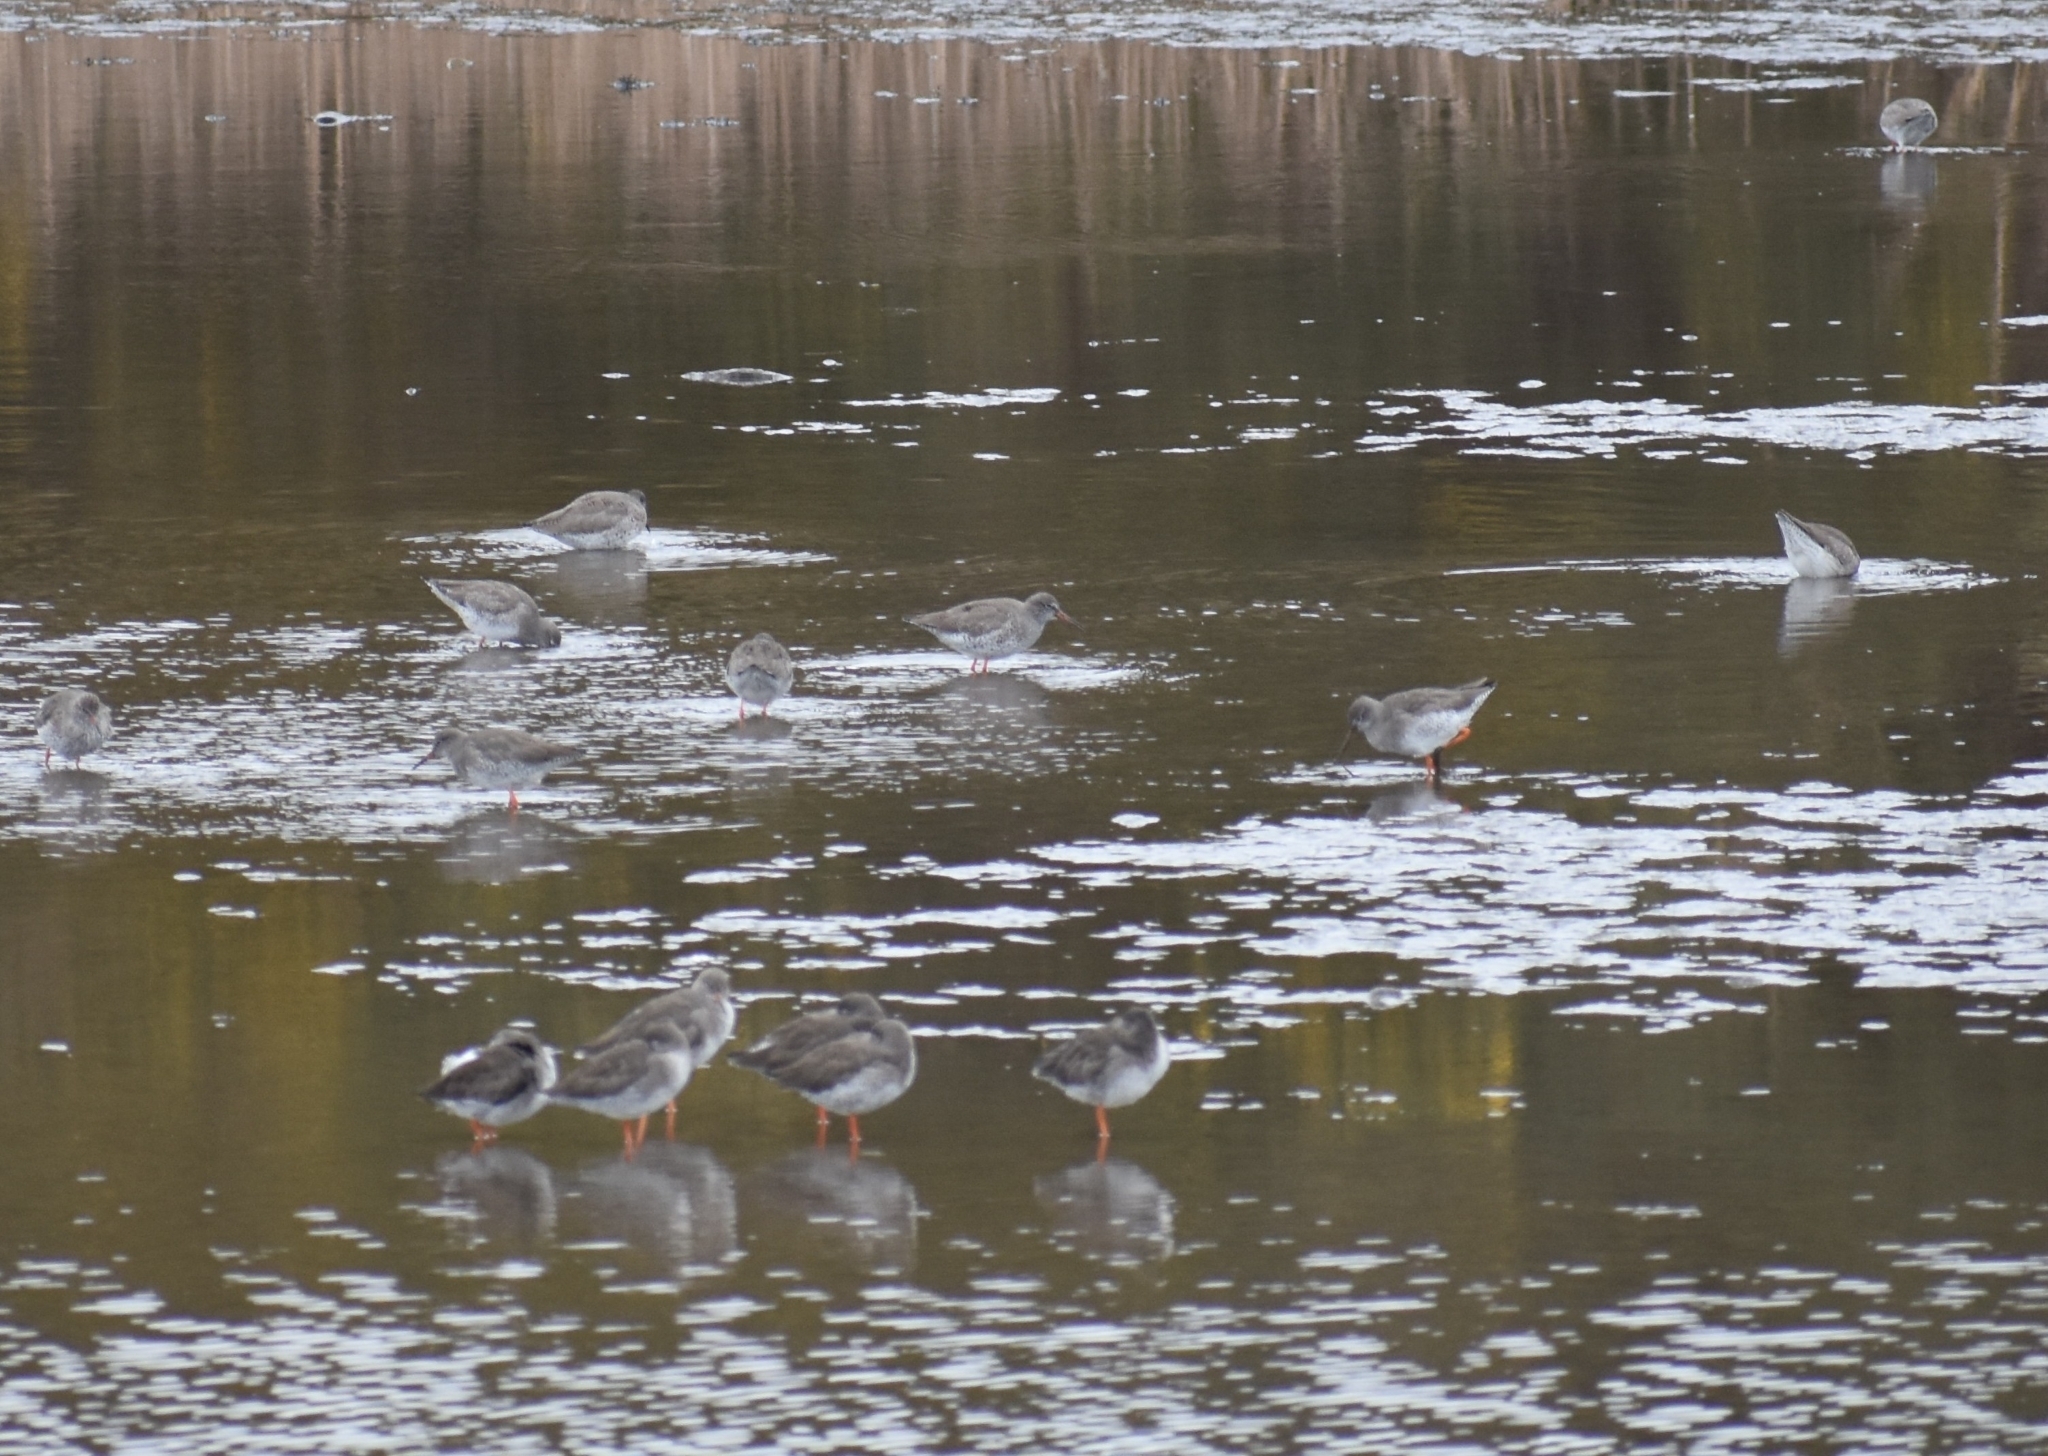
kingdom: Animalia
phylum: Chordata
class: Aves
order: Charadriiformes
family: Scolopacidae
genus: Tringa
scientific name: Tringa totanus
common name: Common redshank
